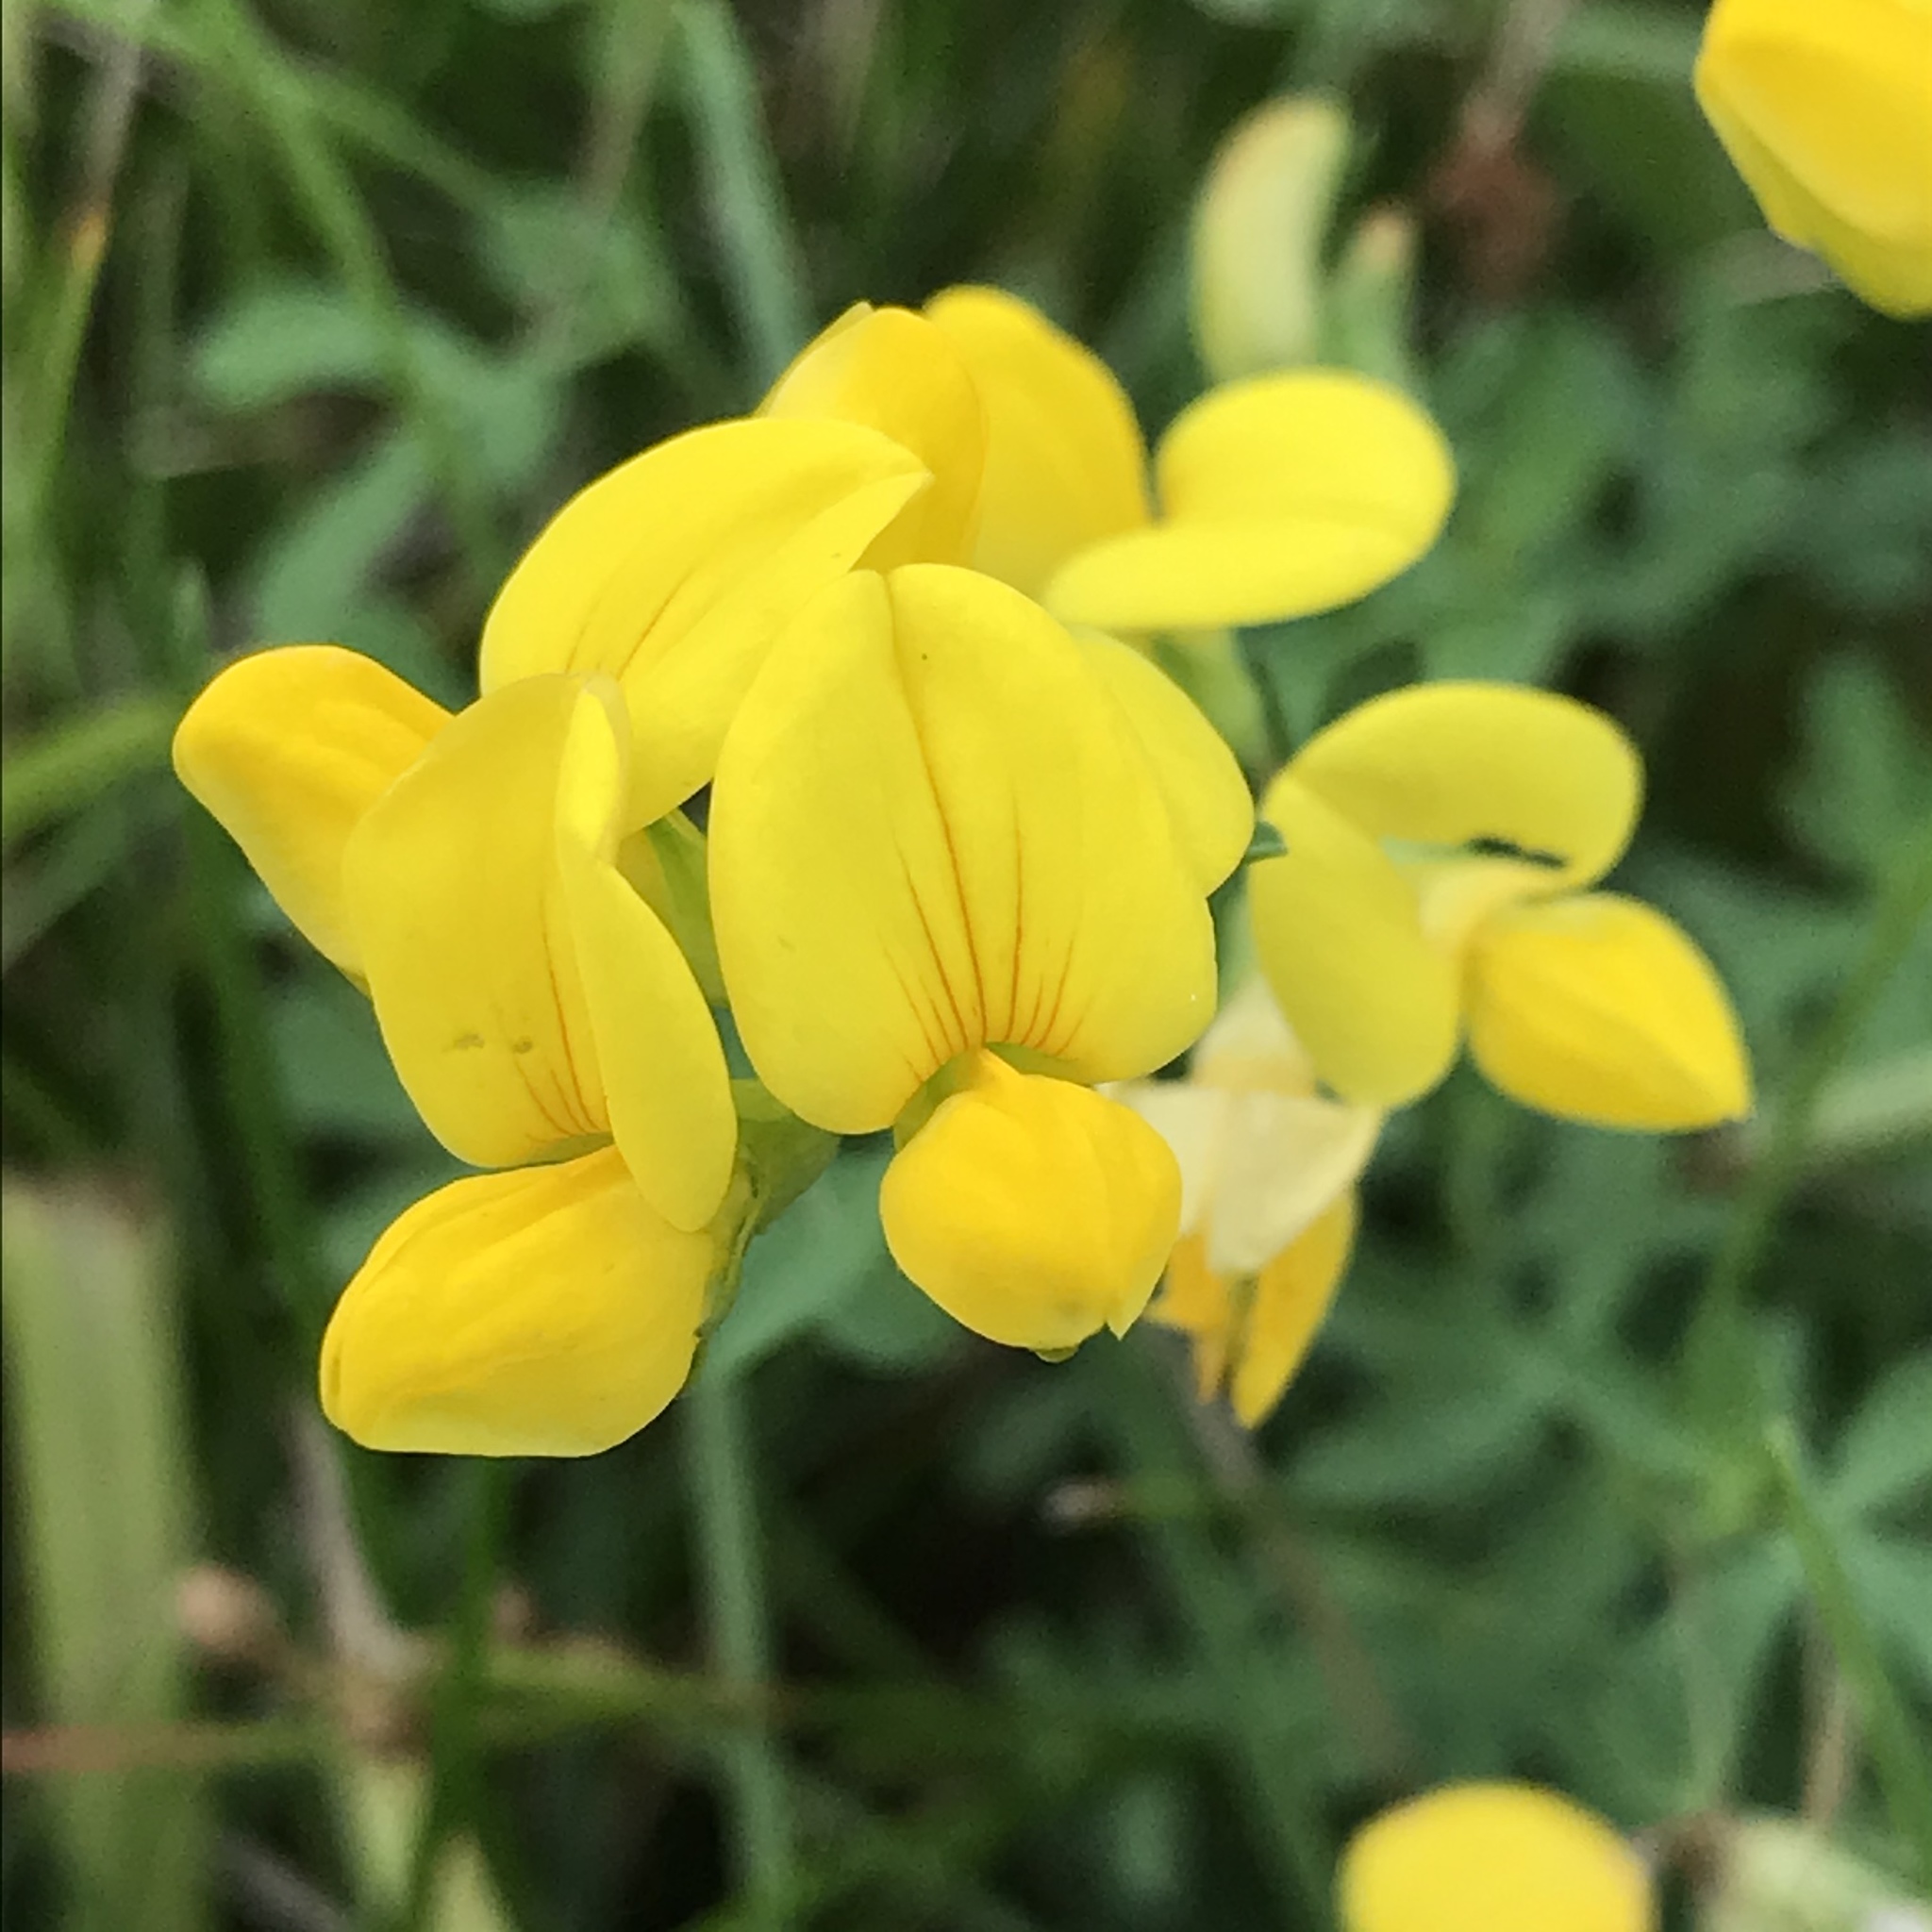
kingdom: Plantae
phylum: Tracheophyta
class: Magnoliopsida
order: Fabales
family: Fabaceae
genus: Lotus
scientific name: Lotus corniculatus
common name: Common bird's-foot-trefoil
